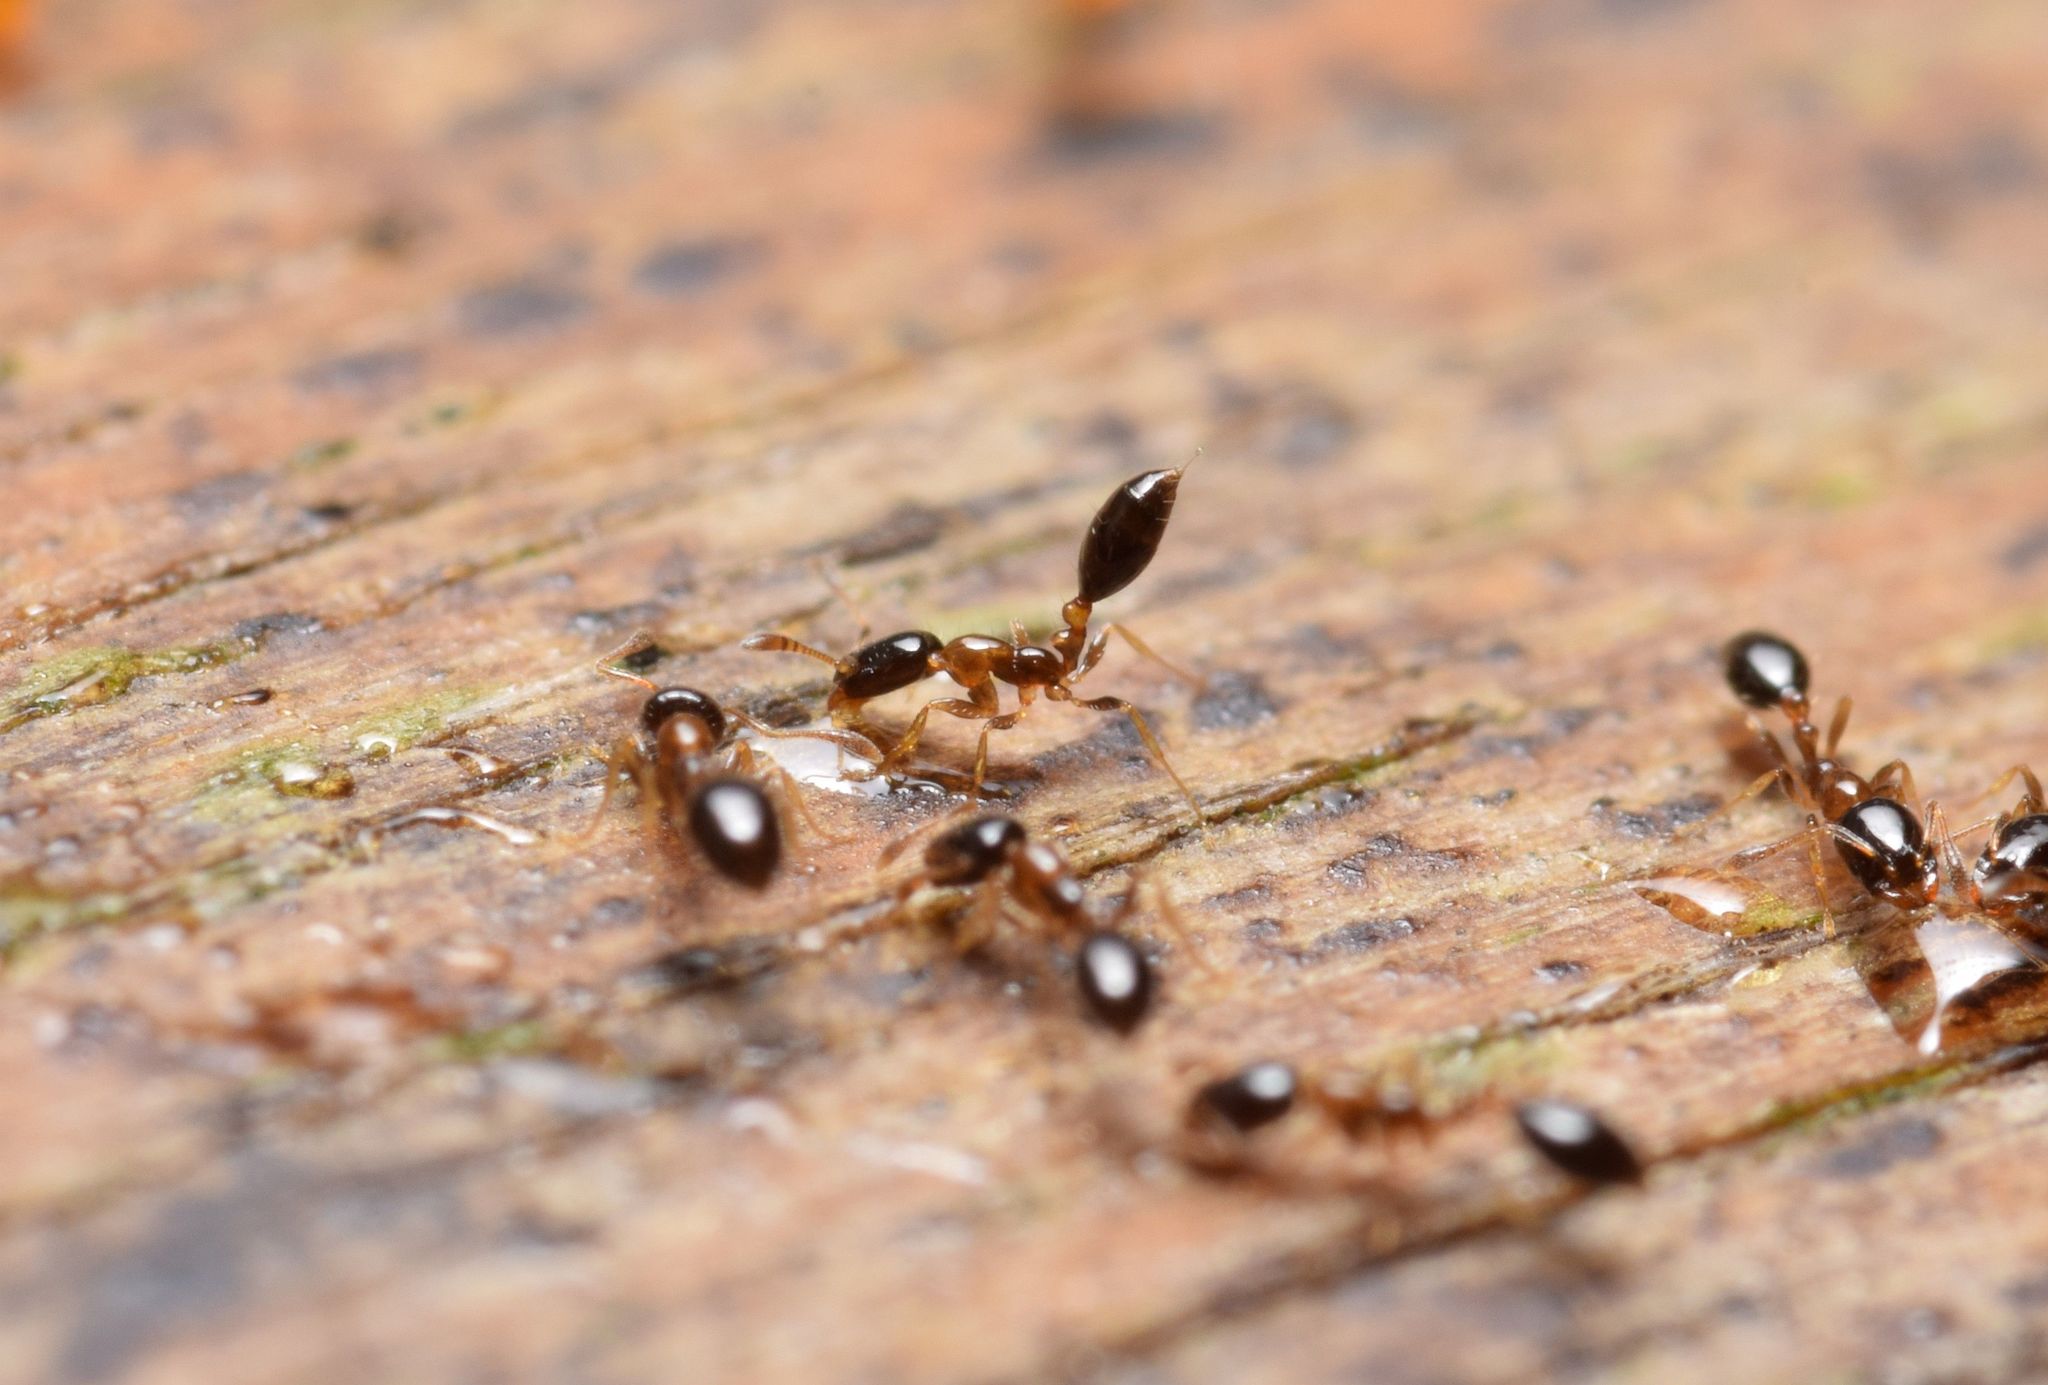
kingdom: Animalia
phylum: Arthropoda
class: Insecta
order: Hymenoptera
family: Formicidae
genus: Monomorium
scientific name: Monomorium floricola
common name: Bicolored trailing ant
